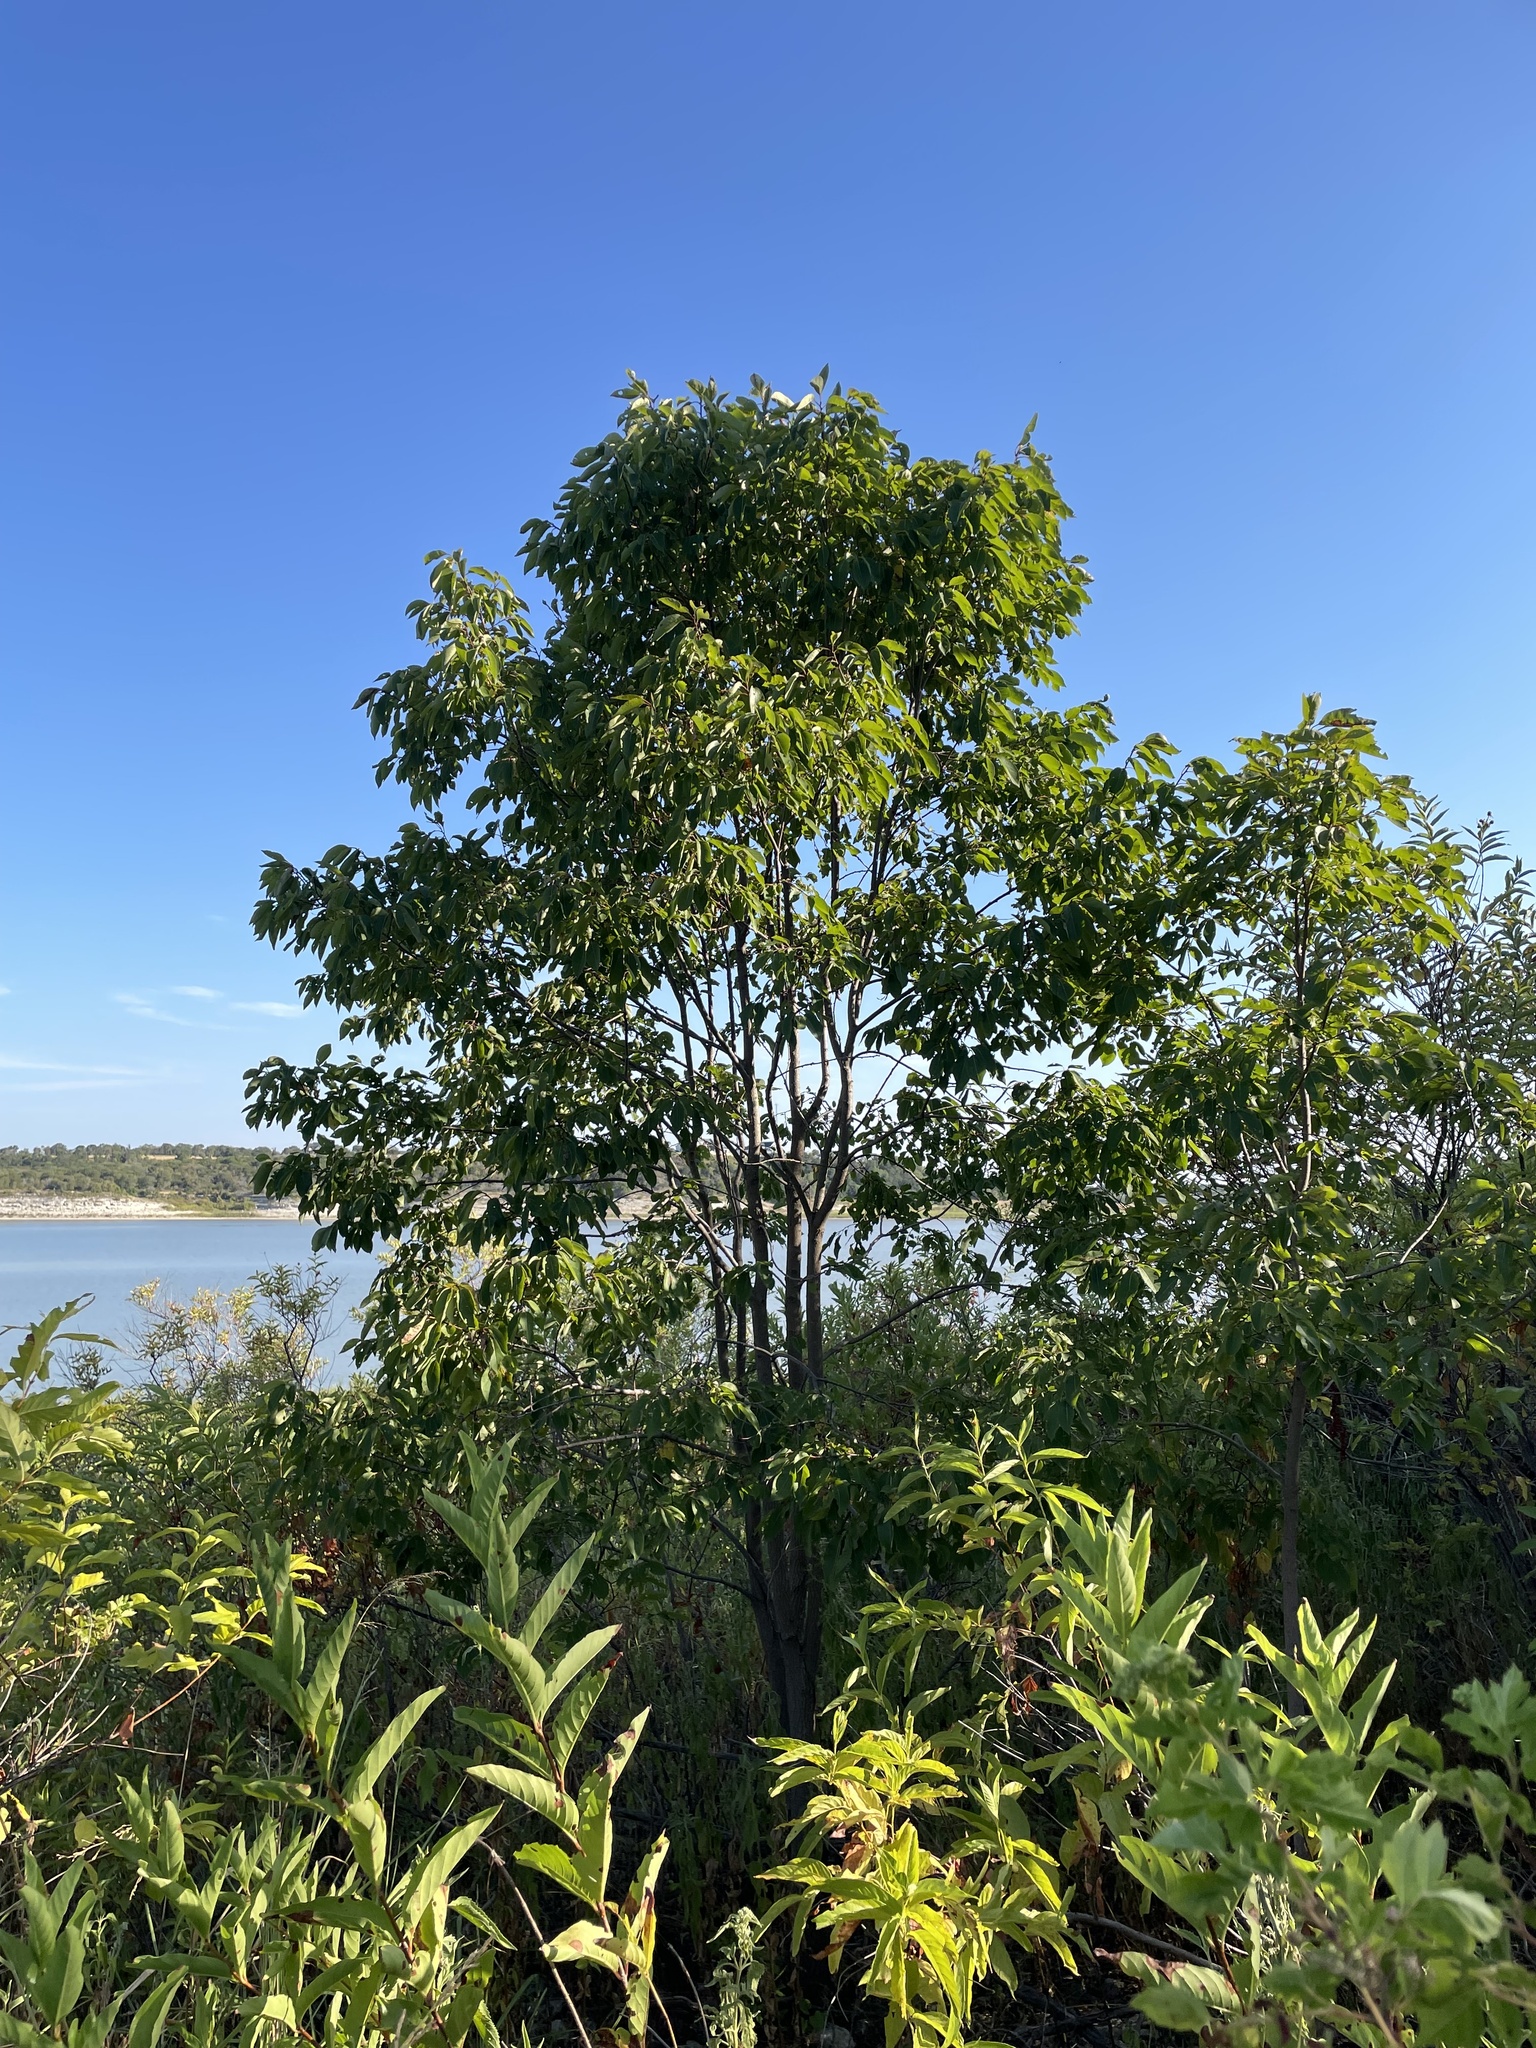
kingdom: Plantae
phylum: Tracheophyta
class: Magnoliopsida
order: Ericales
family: Ebenaceae
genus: Diospyros
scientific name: Diospyros virginiana
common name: Persimmon
